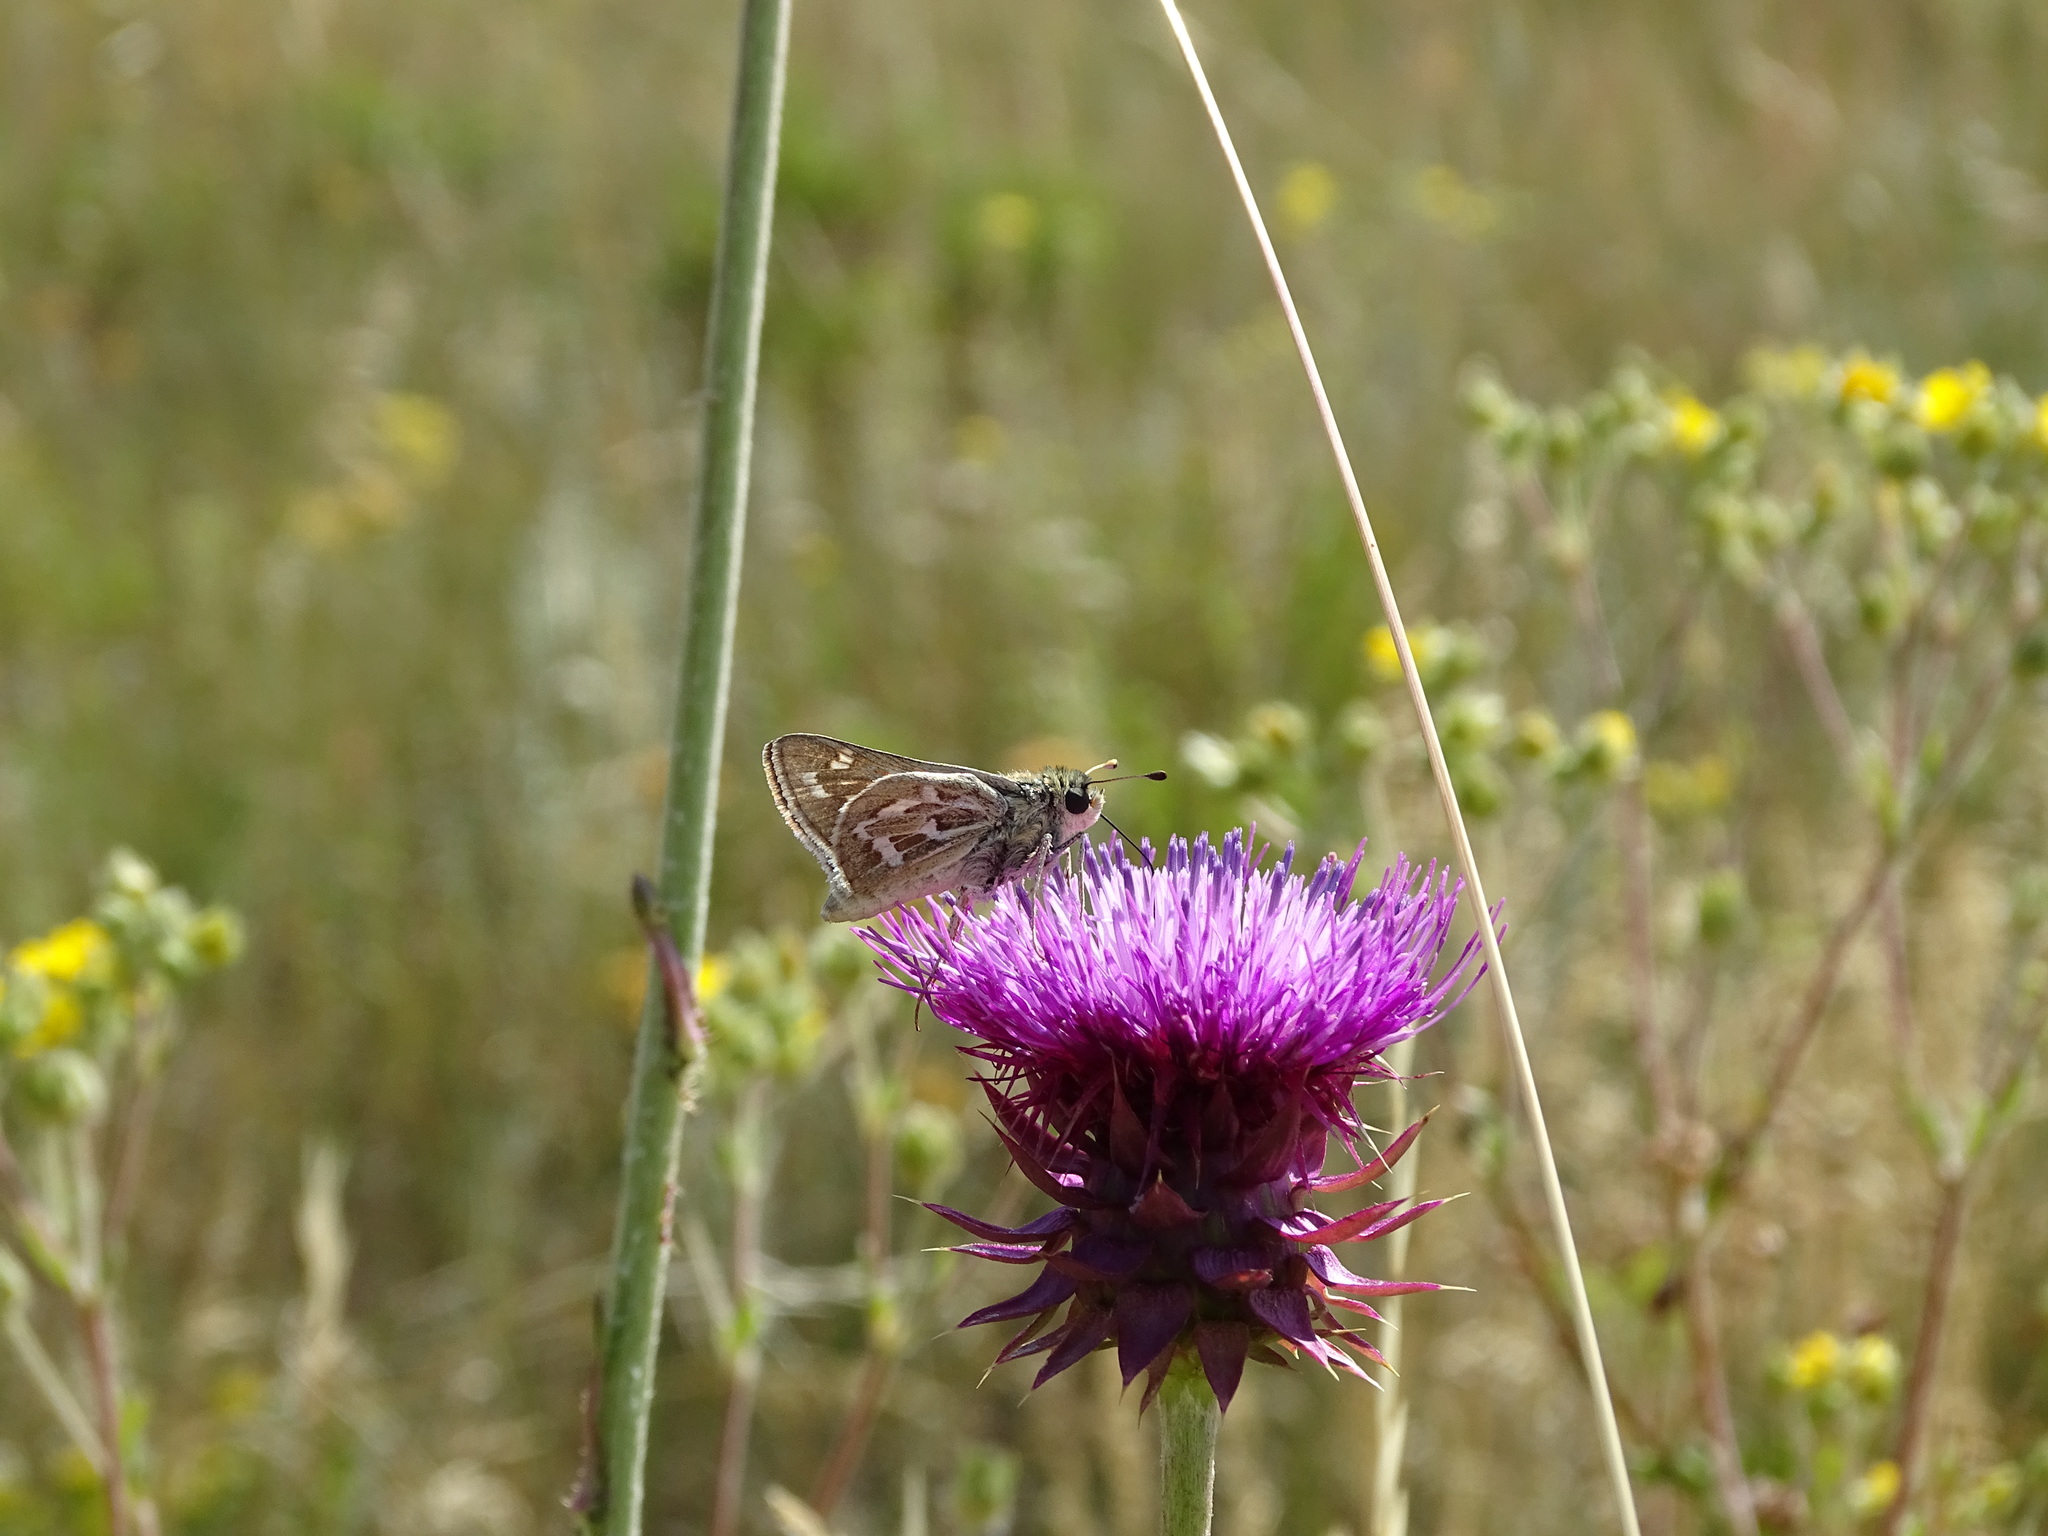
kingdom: Animalia
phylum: Arthropoda
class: Insecta
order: Lepidoptera
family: Hesperiidae
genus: Hesperia
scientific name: Hesperia uncas
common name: Uncas skipper
